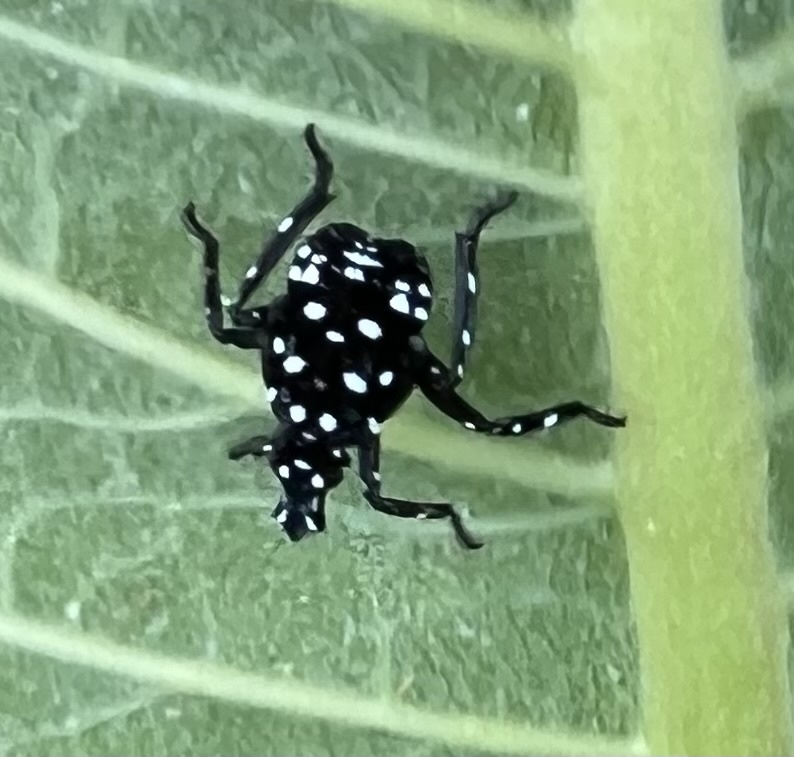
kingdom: Animalia
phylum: Arthropoda
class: Insecta
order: Hemiptera
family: Fulgoridae
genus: Lycorma
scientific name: Lycorma delicatula
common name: Spotted lanternfly
